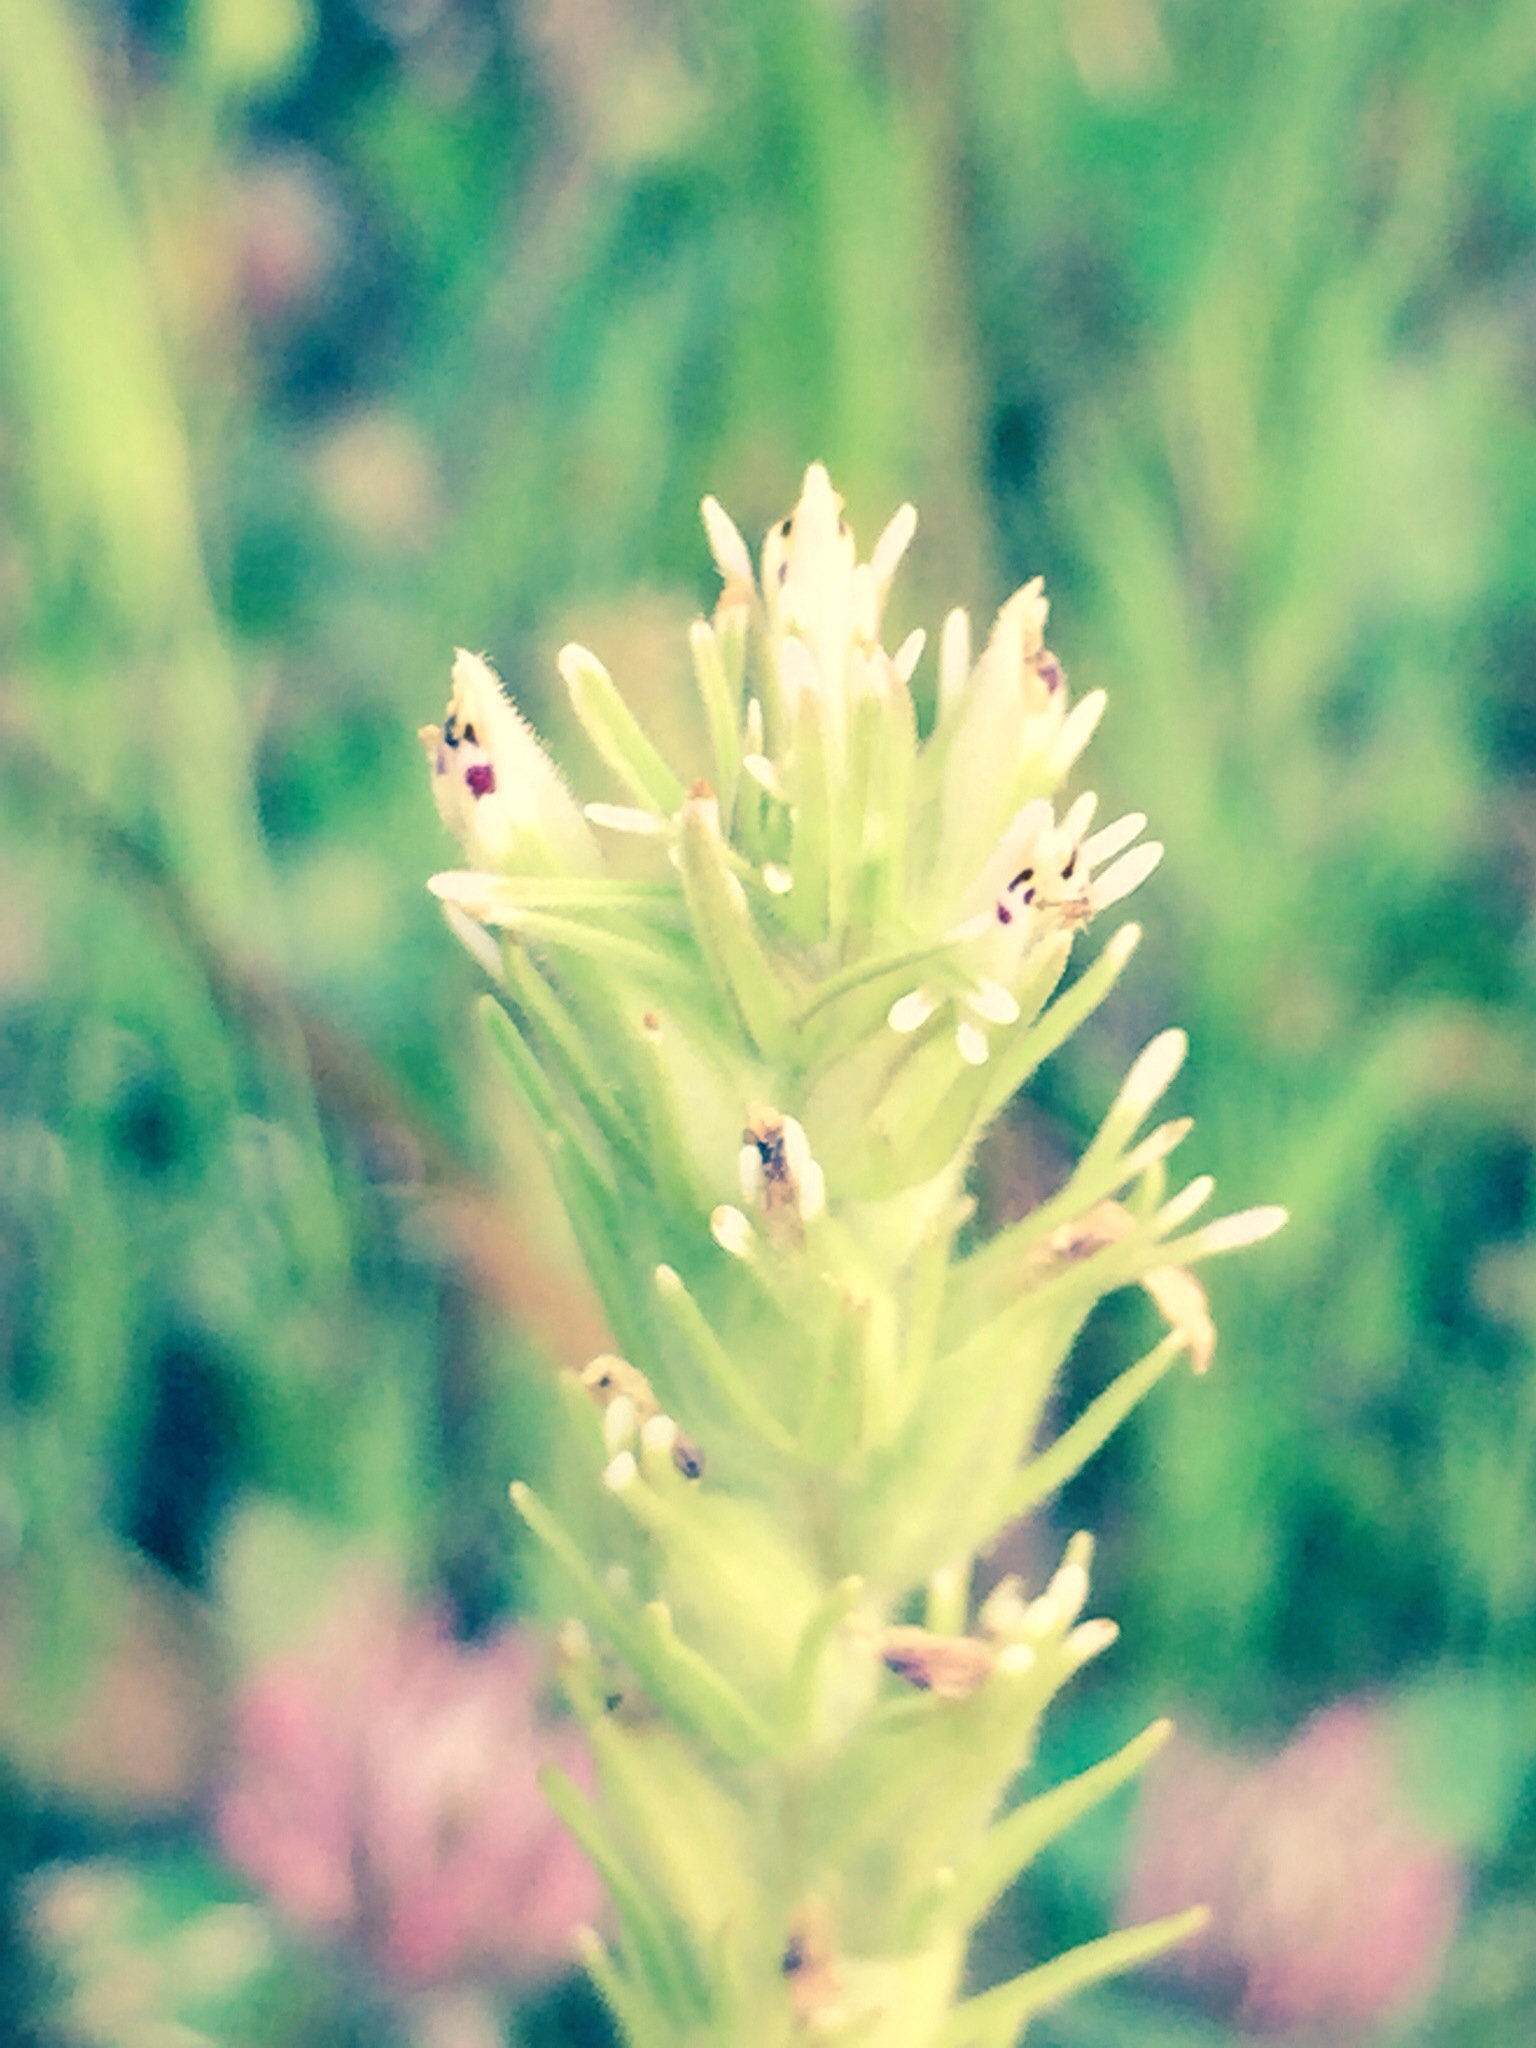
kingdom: Plantae
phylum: Tracheophyta
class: Magnoliopsida
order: Lamiales
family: Orobanchaceae
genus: Castilleja
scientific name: Castilleja attenuata
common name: Valley tassels
